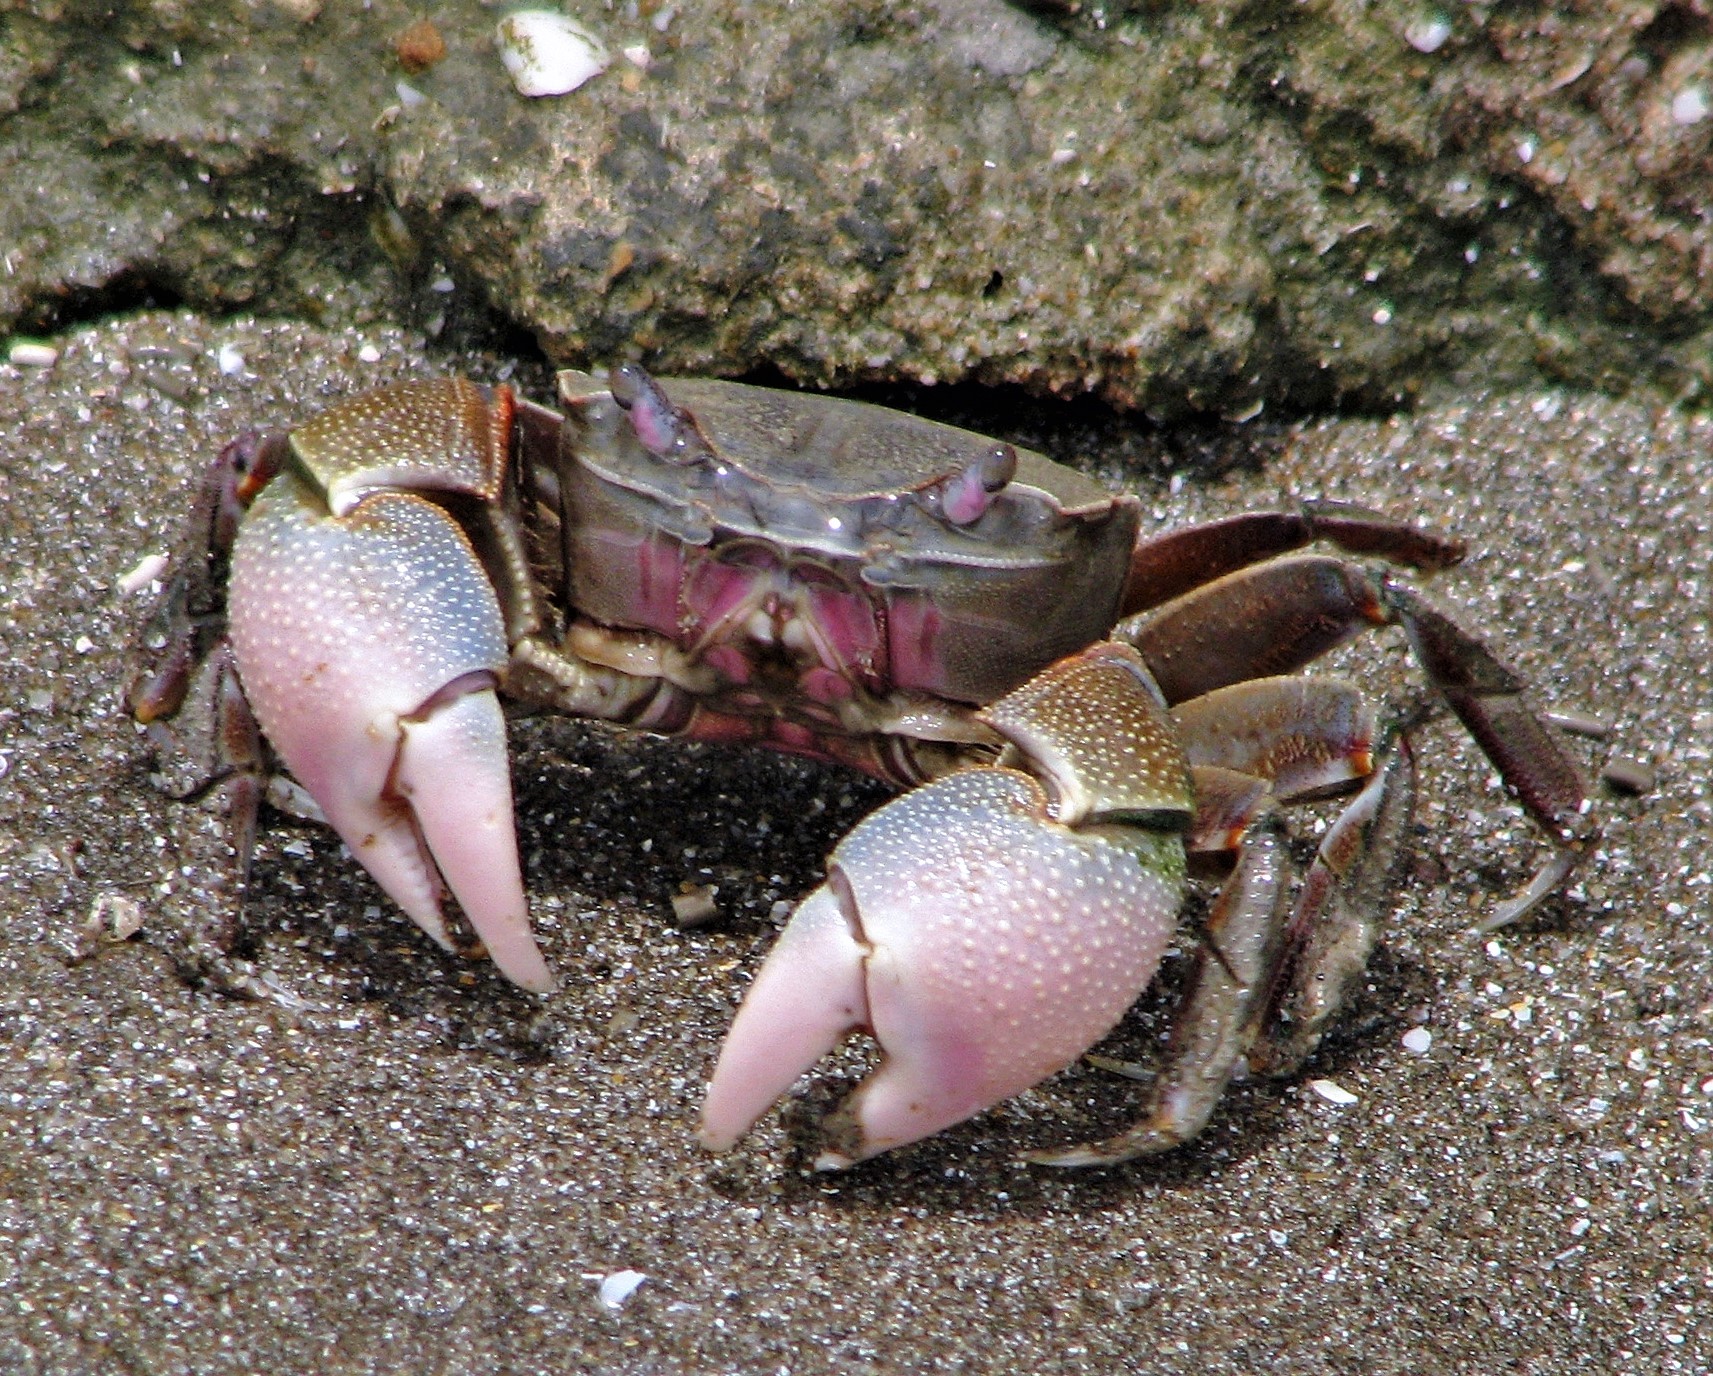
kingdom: Animalia
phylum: Arthropoda
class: Malacostraca
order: Decapoda
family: Varunidae
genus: Neohelice
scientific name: Neohelice granulata
